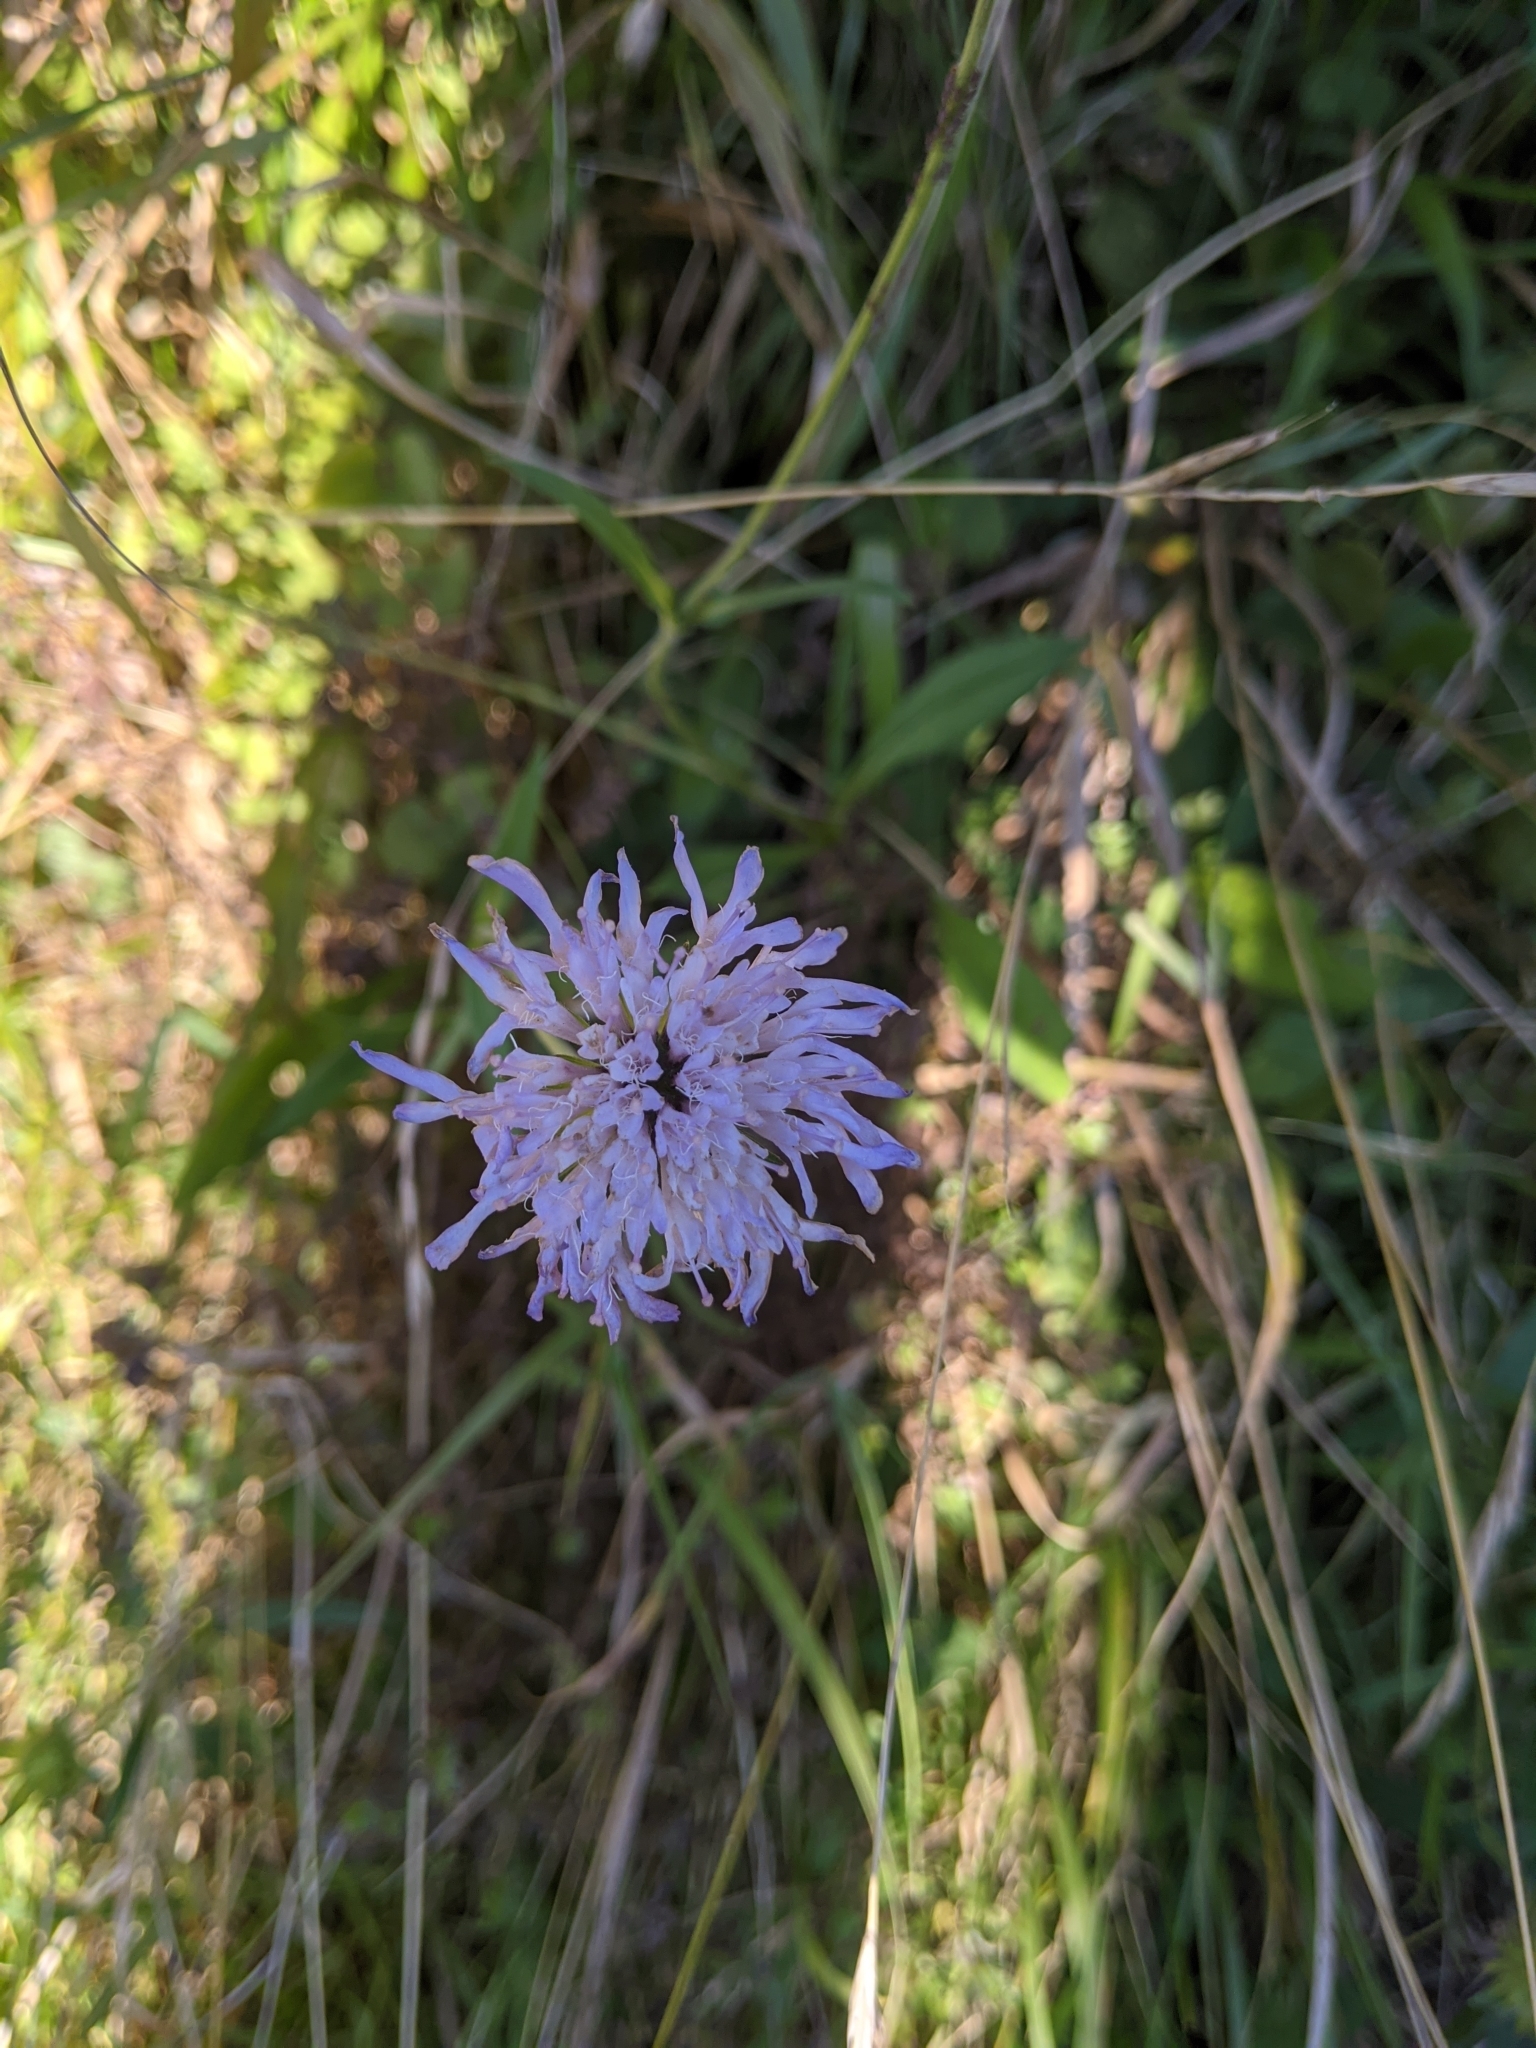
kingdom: Plantae
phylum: Tracheophyta
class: Magnoliopsida
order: Dipsacales
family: Caprifoliaceae
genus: Knautia
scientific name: Knautia arvensis
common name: Field scabiosa
